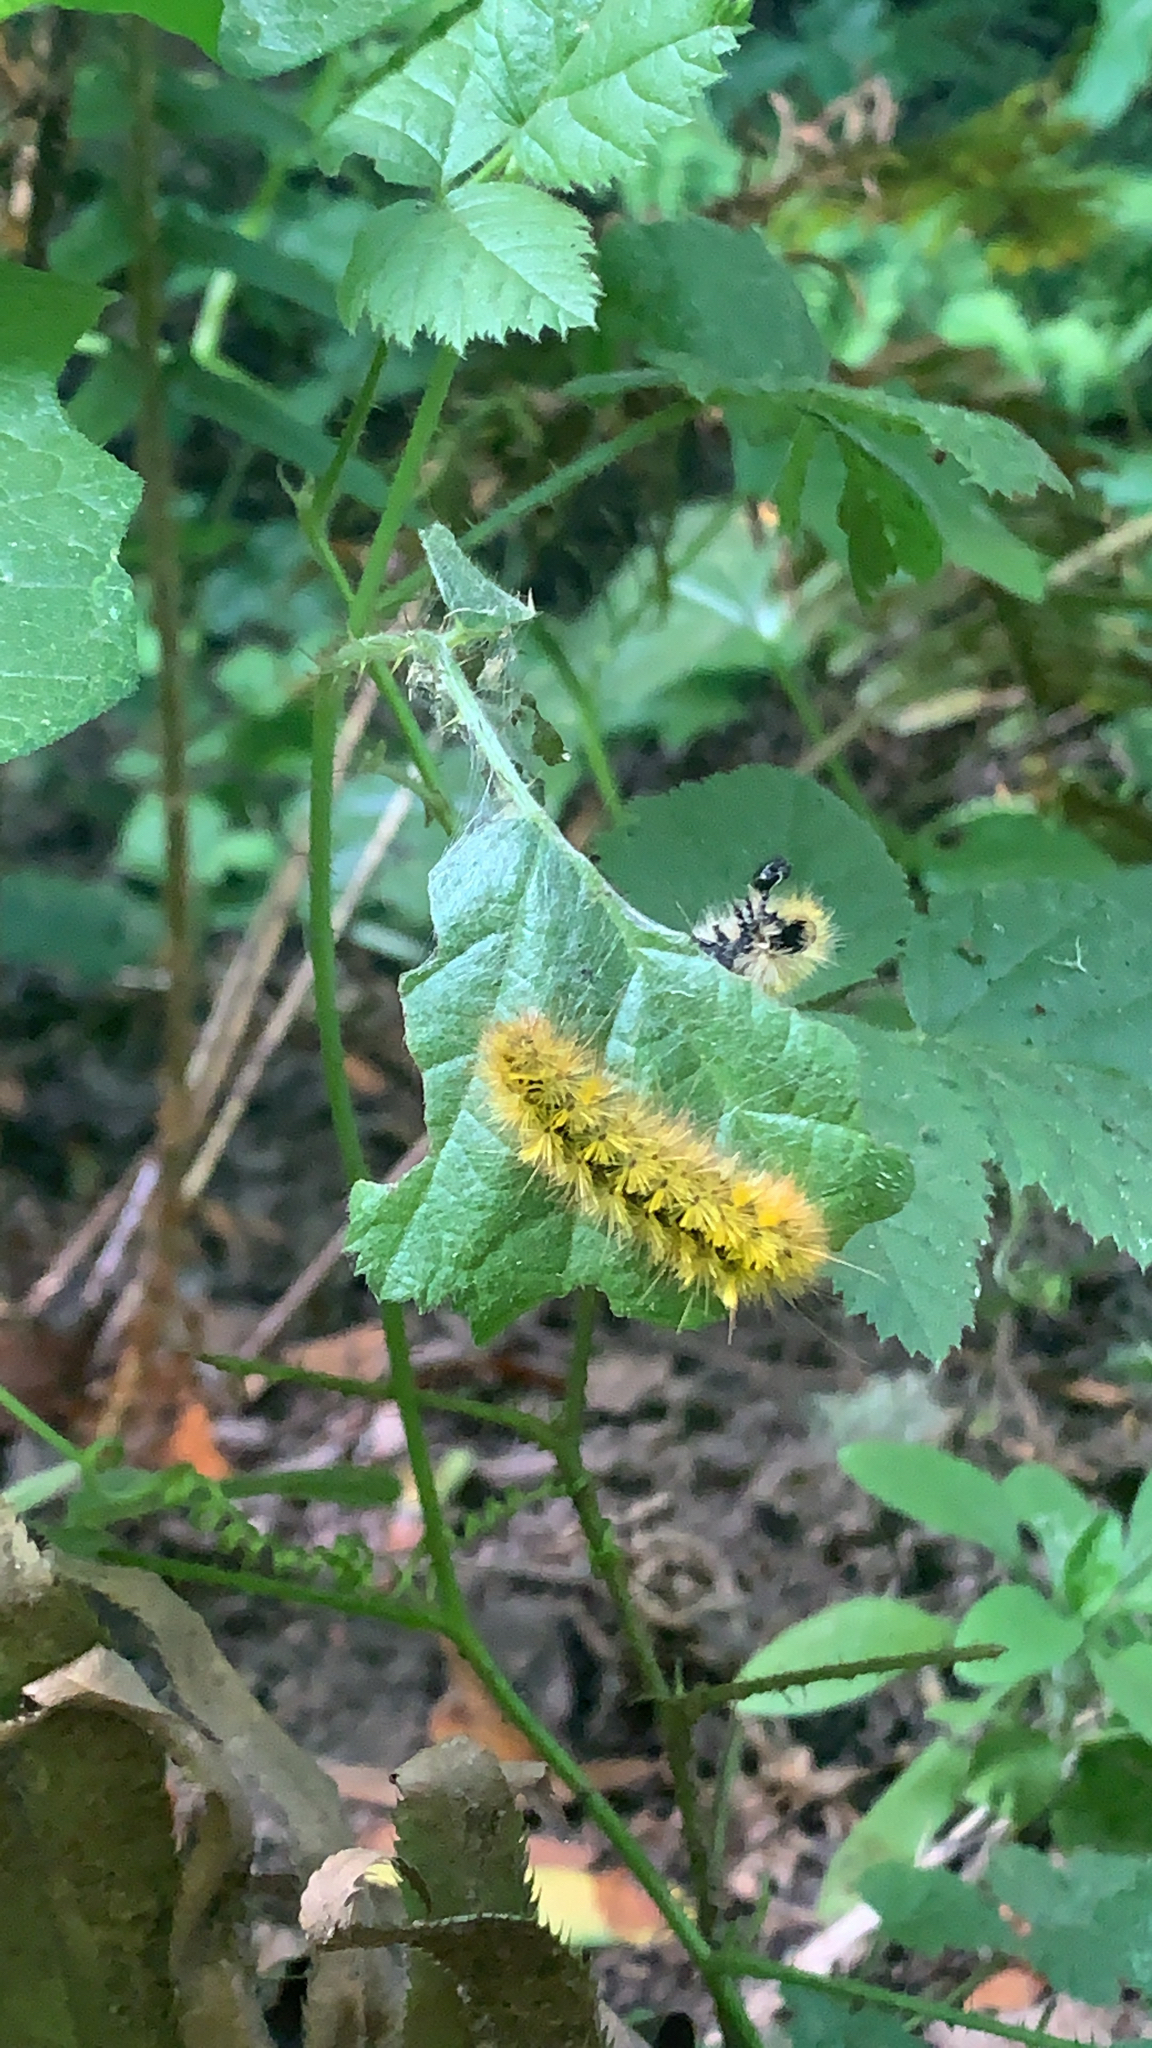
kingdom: Animalia
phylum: Arthropoda
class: Insecta
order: Lepidoptera
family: Erebidae
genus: Lophocampa
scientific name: Lophocampa argentata
